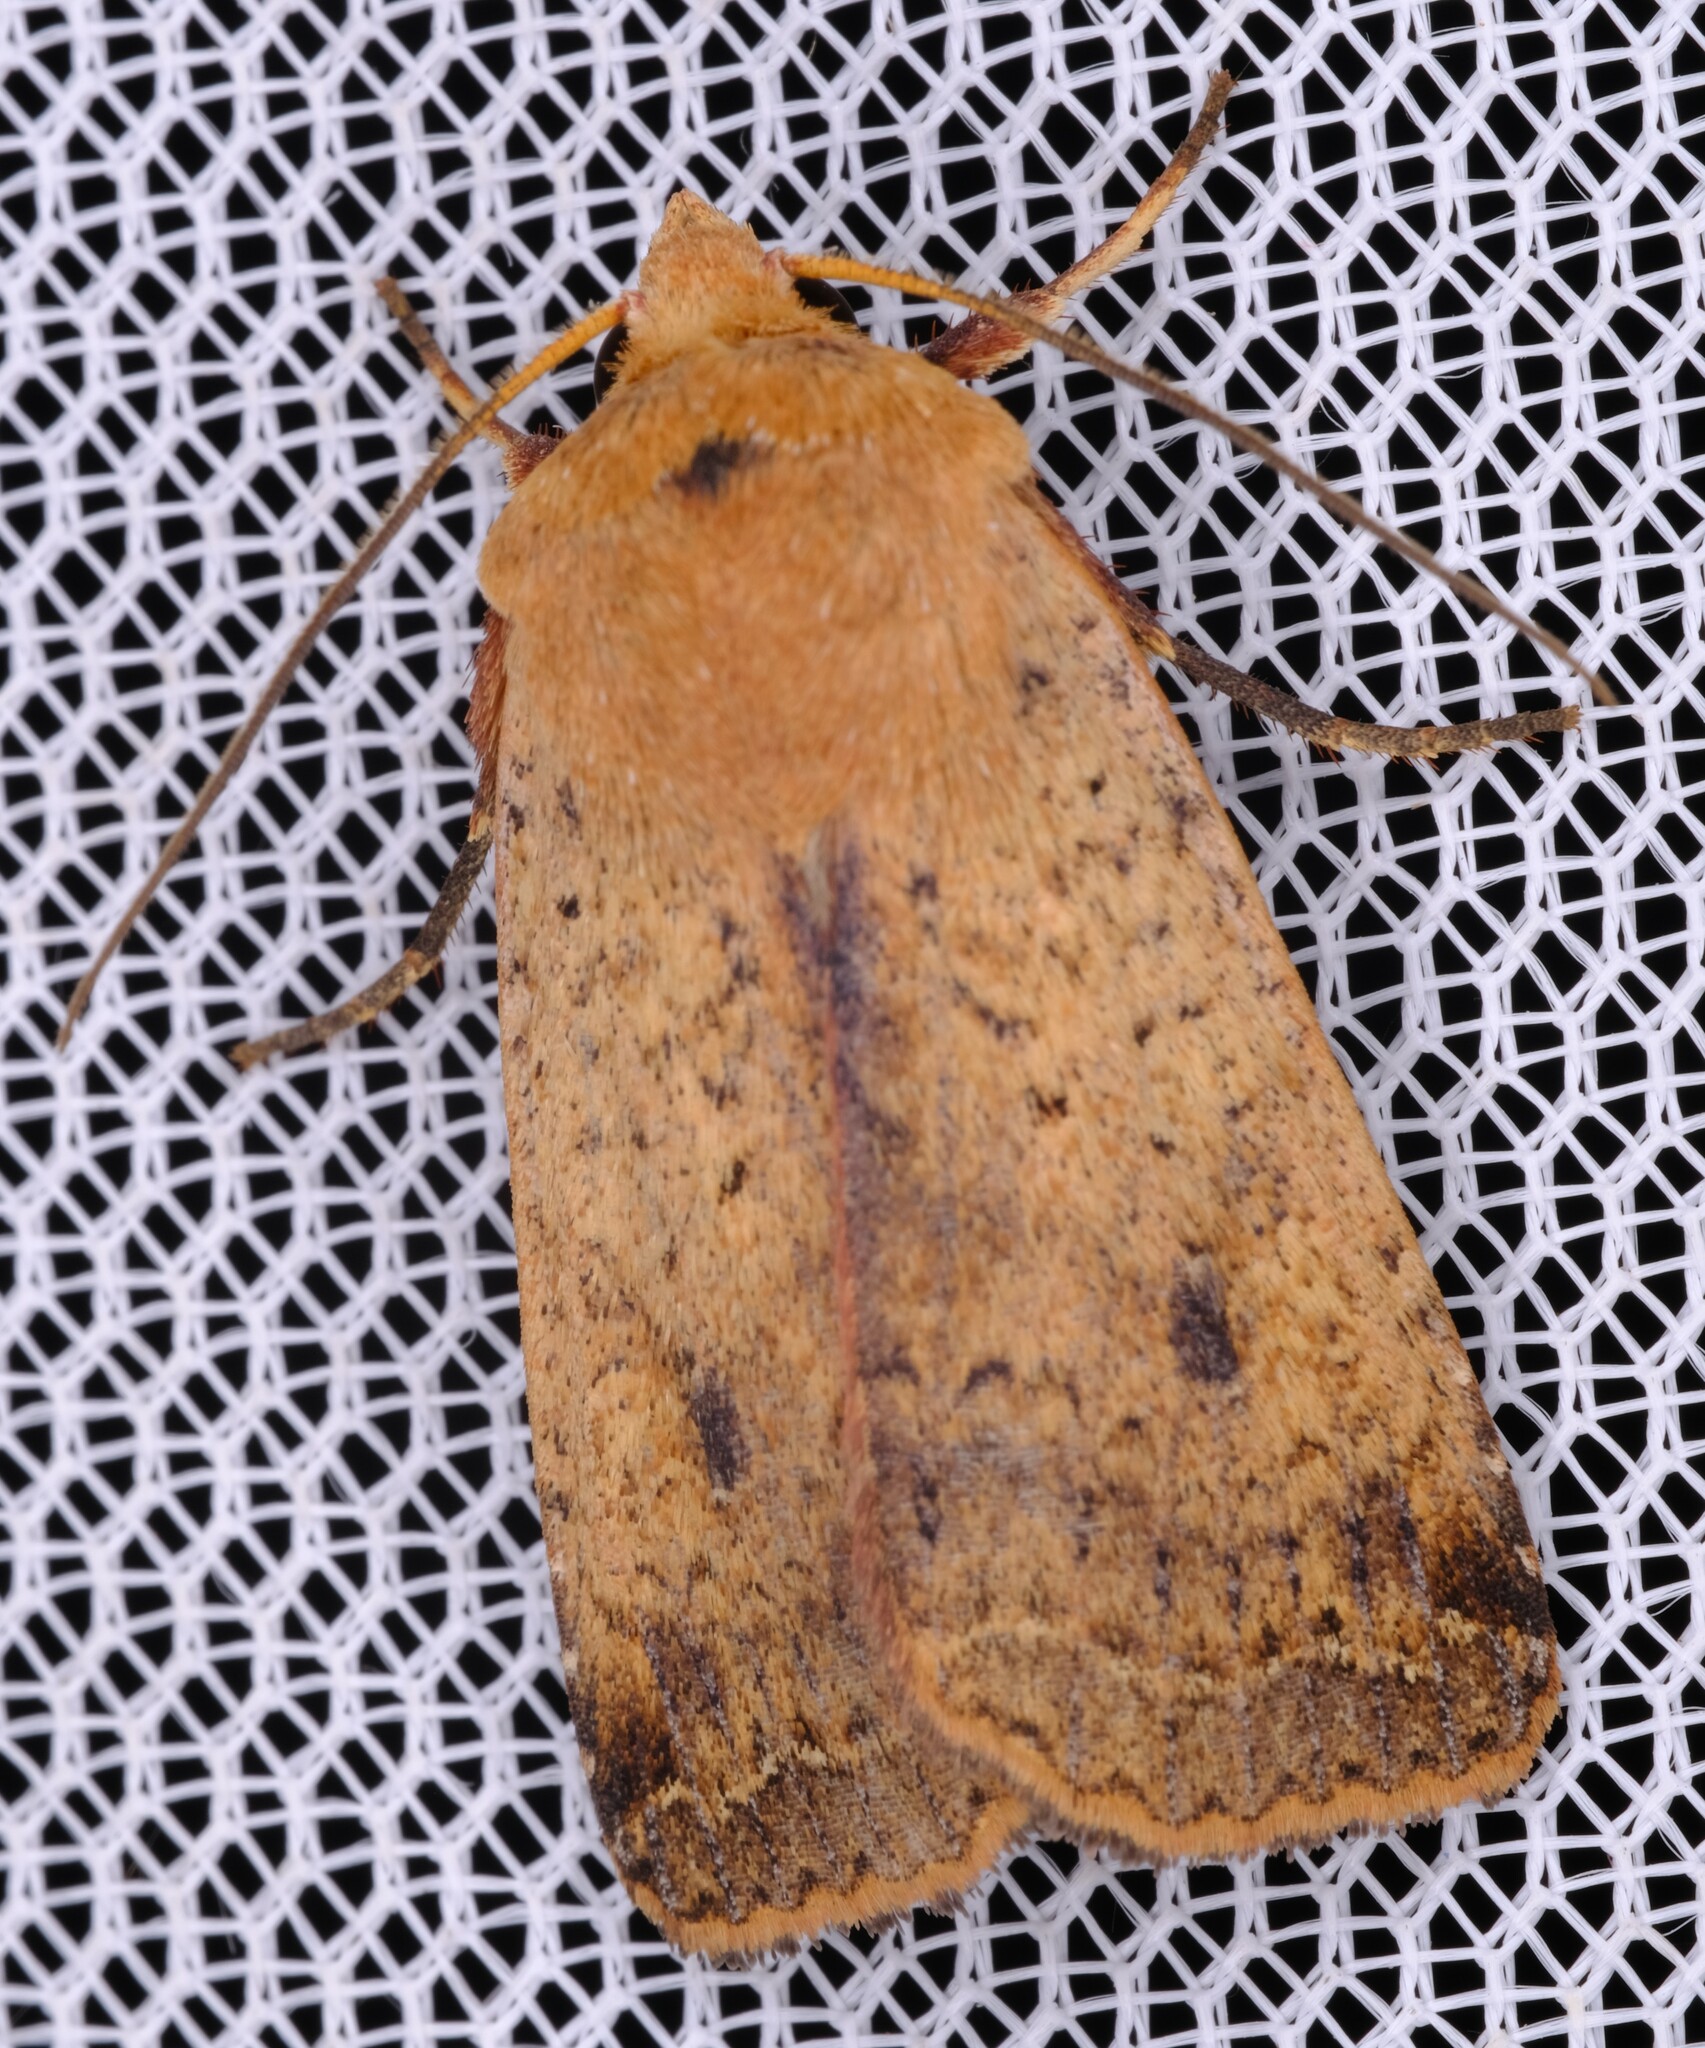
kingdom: Animalia
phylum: Arthropoda
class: Insecta
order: Lepidoptera
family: Noctuidae
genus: Diarsia
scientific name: Diarsia intermixta
